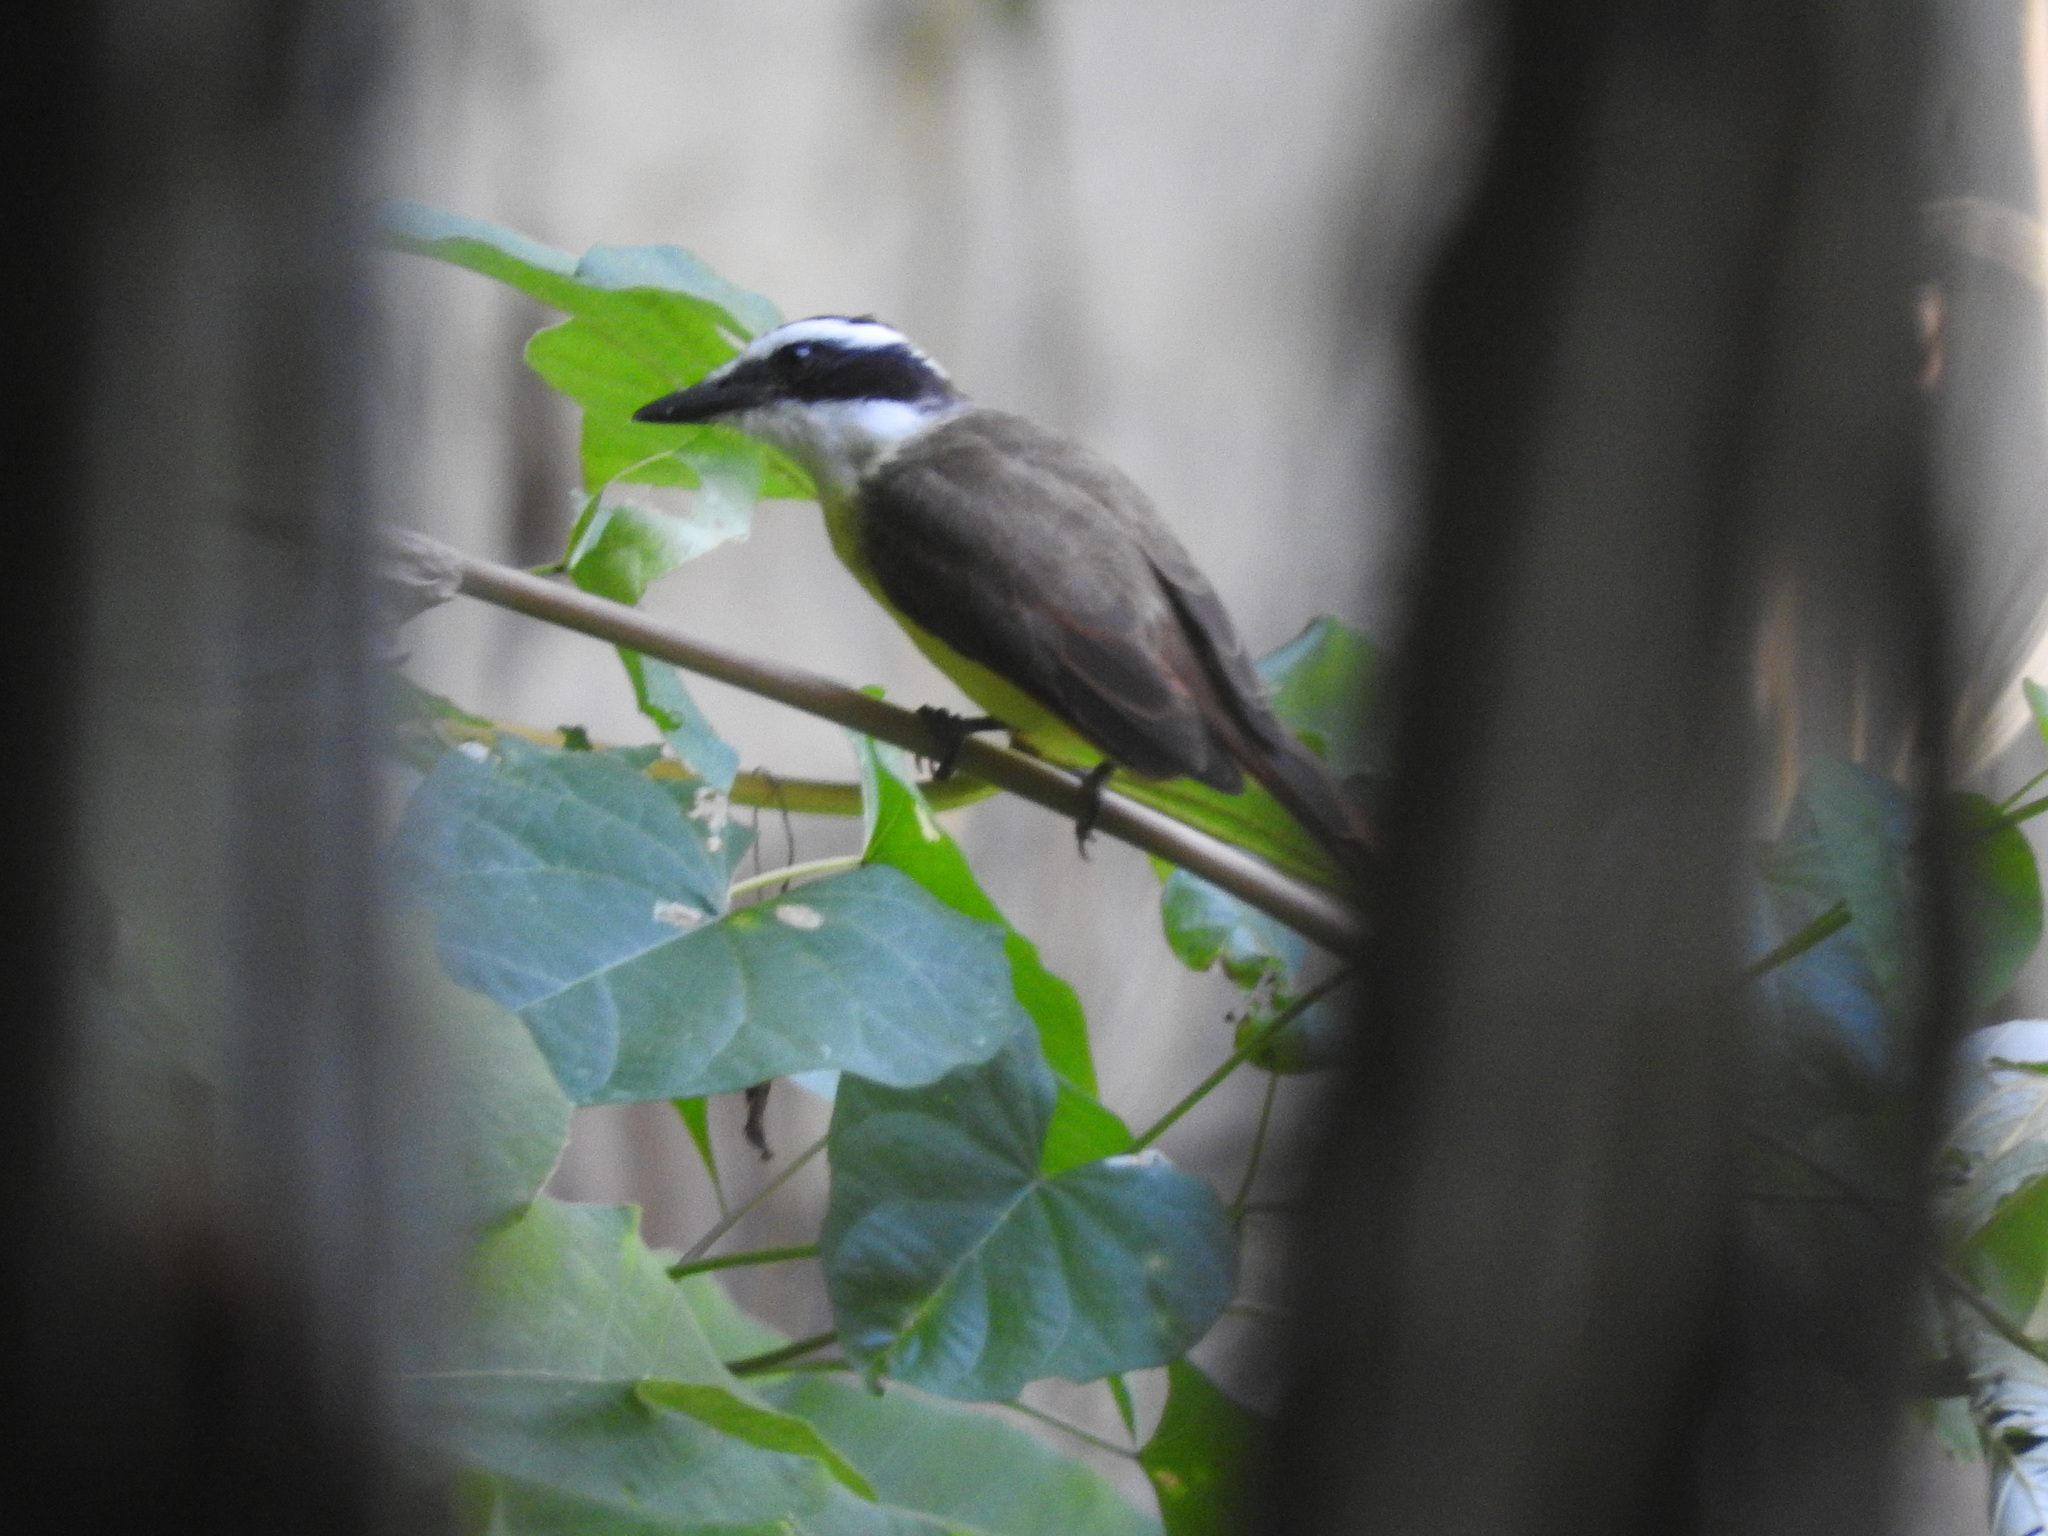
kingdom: Animalia
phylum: Chordata
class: Aves
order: Passeriformes
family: Tyrannidae
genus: Pitangus
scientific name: Pitangus sulphuratus
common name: Great kiskadee
